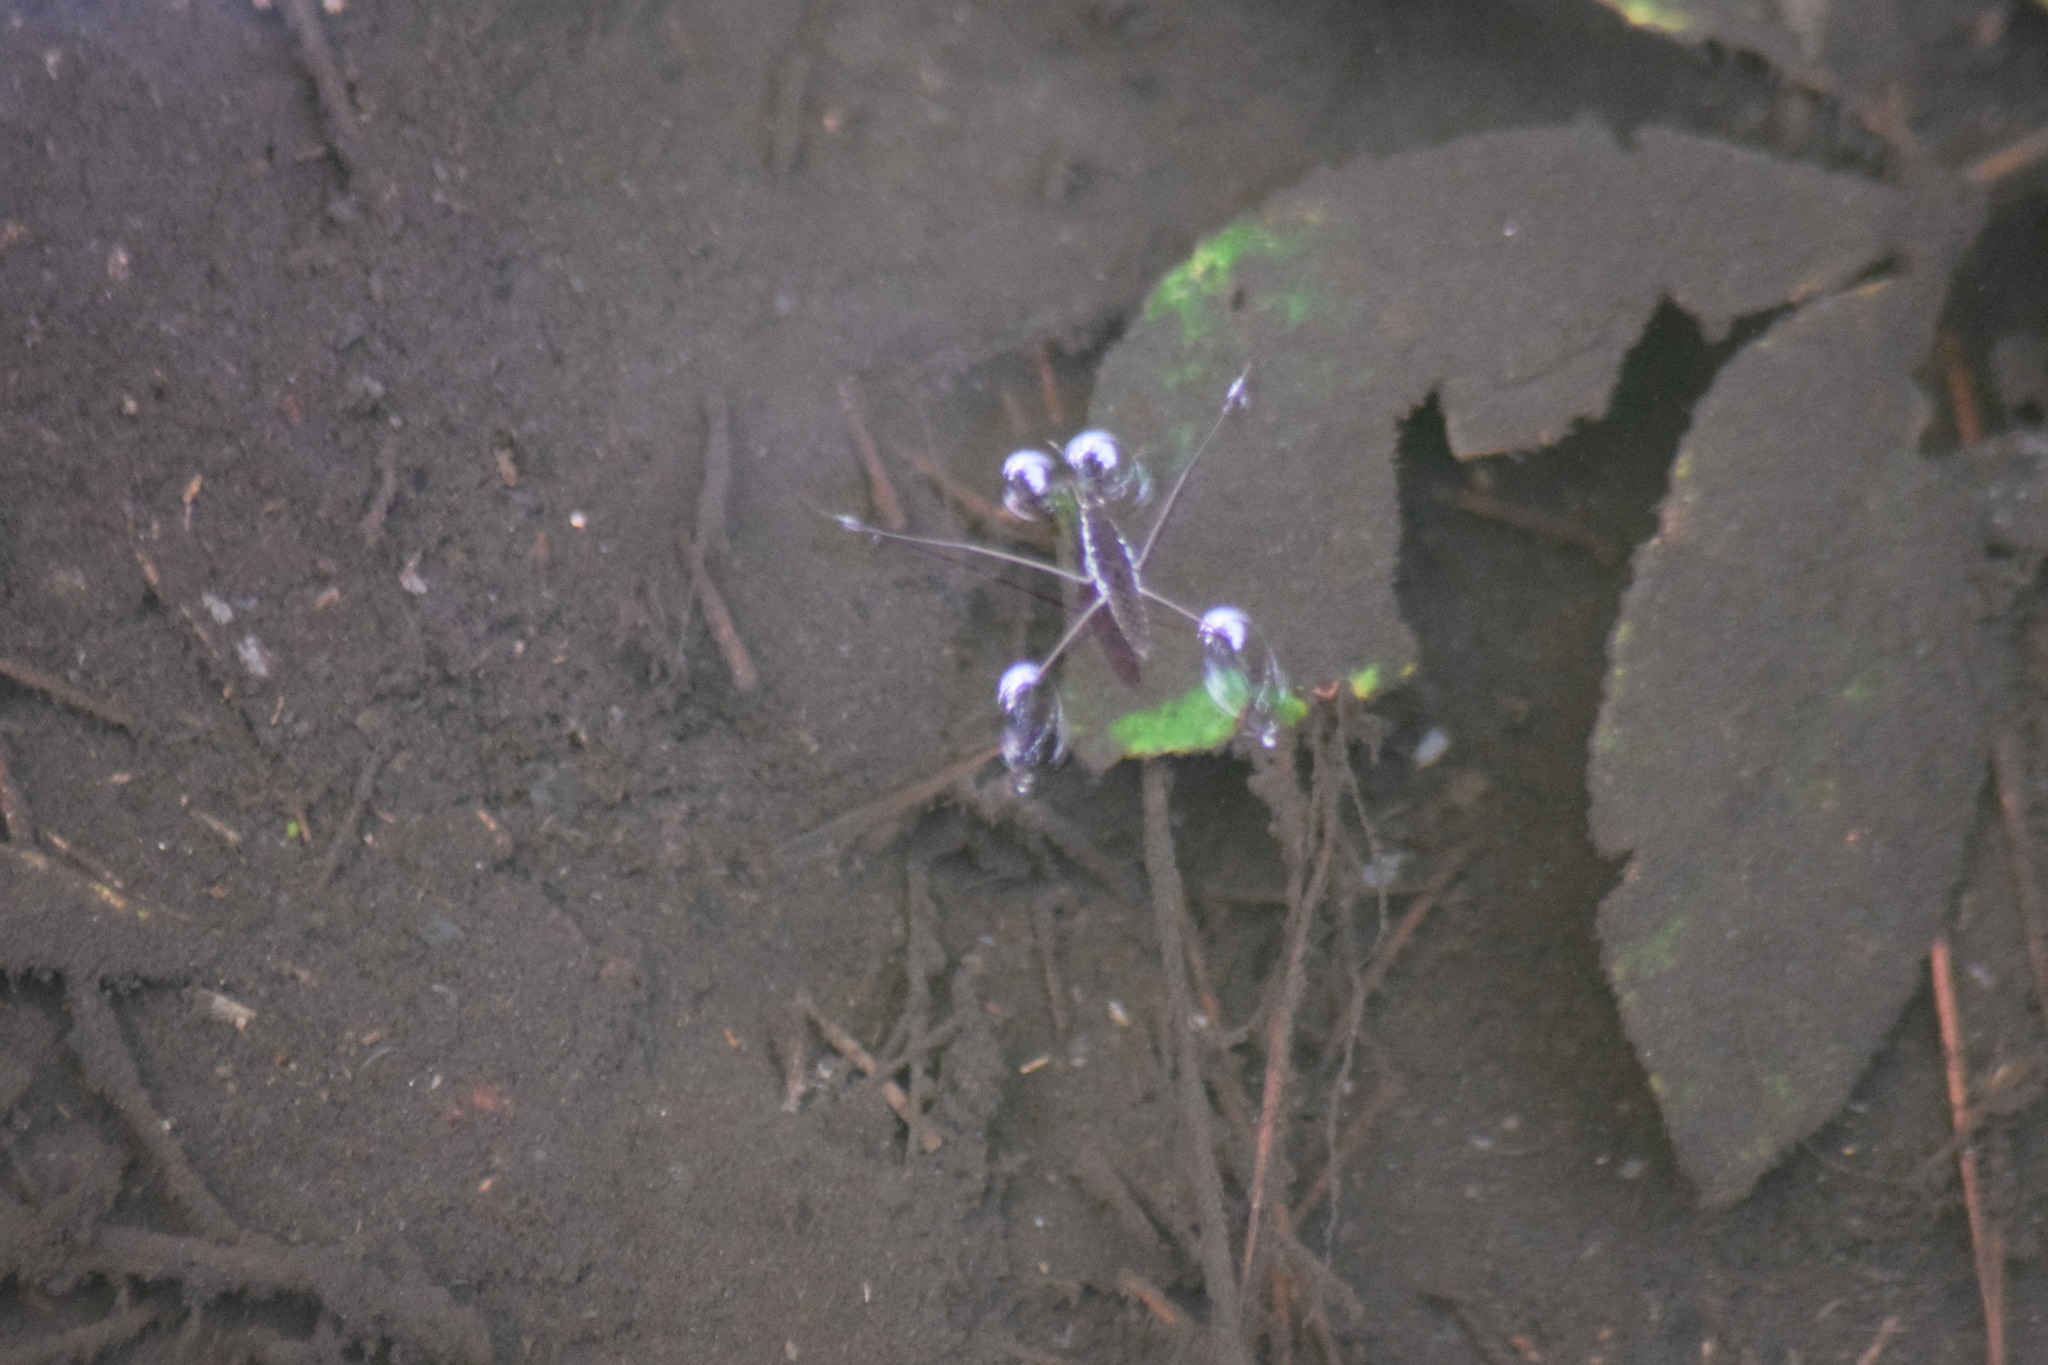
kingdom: Animalia
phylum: Arthropoda
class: Insecta
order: Hemiptera
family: Gerridae
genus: Aquarius
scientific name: Aquarius
